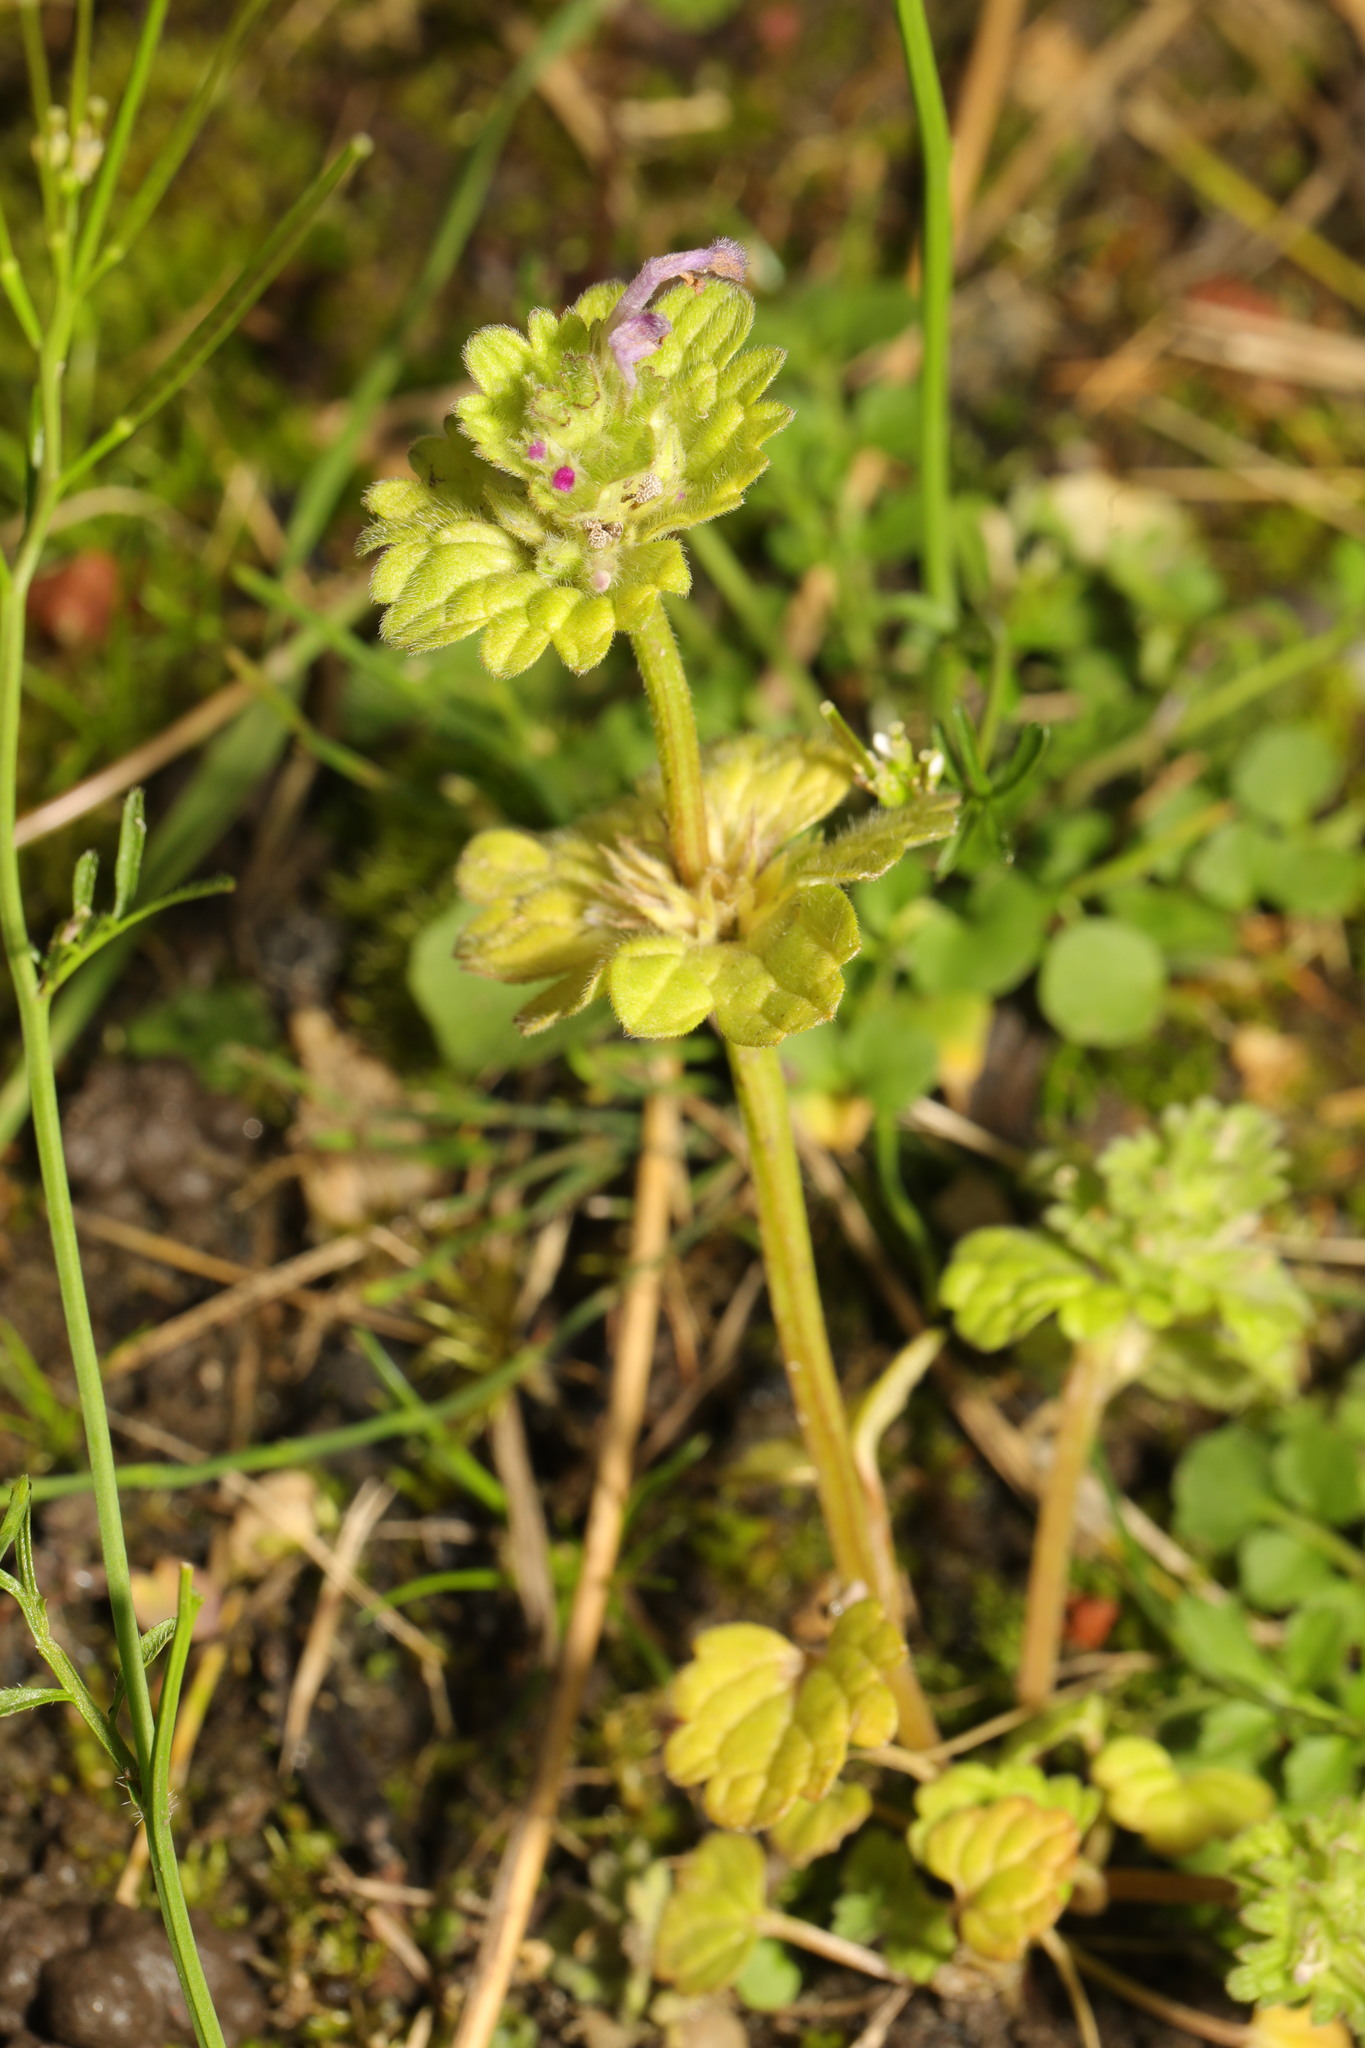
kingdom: Plantae
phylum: Tracheophyta
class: Magnoliopsida
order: Lamiales
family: Lamiaceae
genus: Lamium
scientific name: Lamium amplexicaule
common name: Henbit dead-nettle
